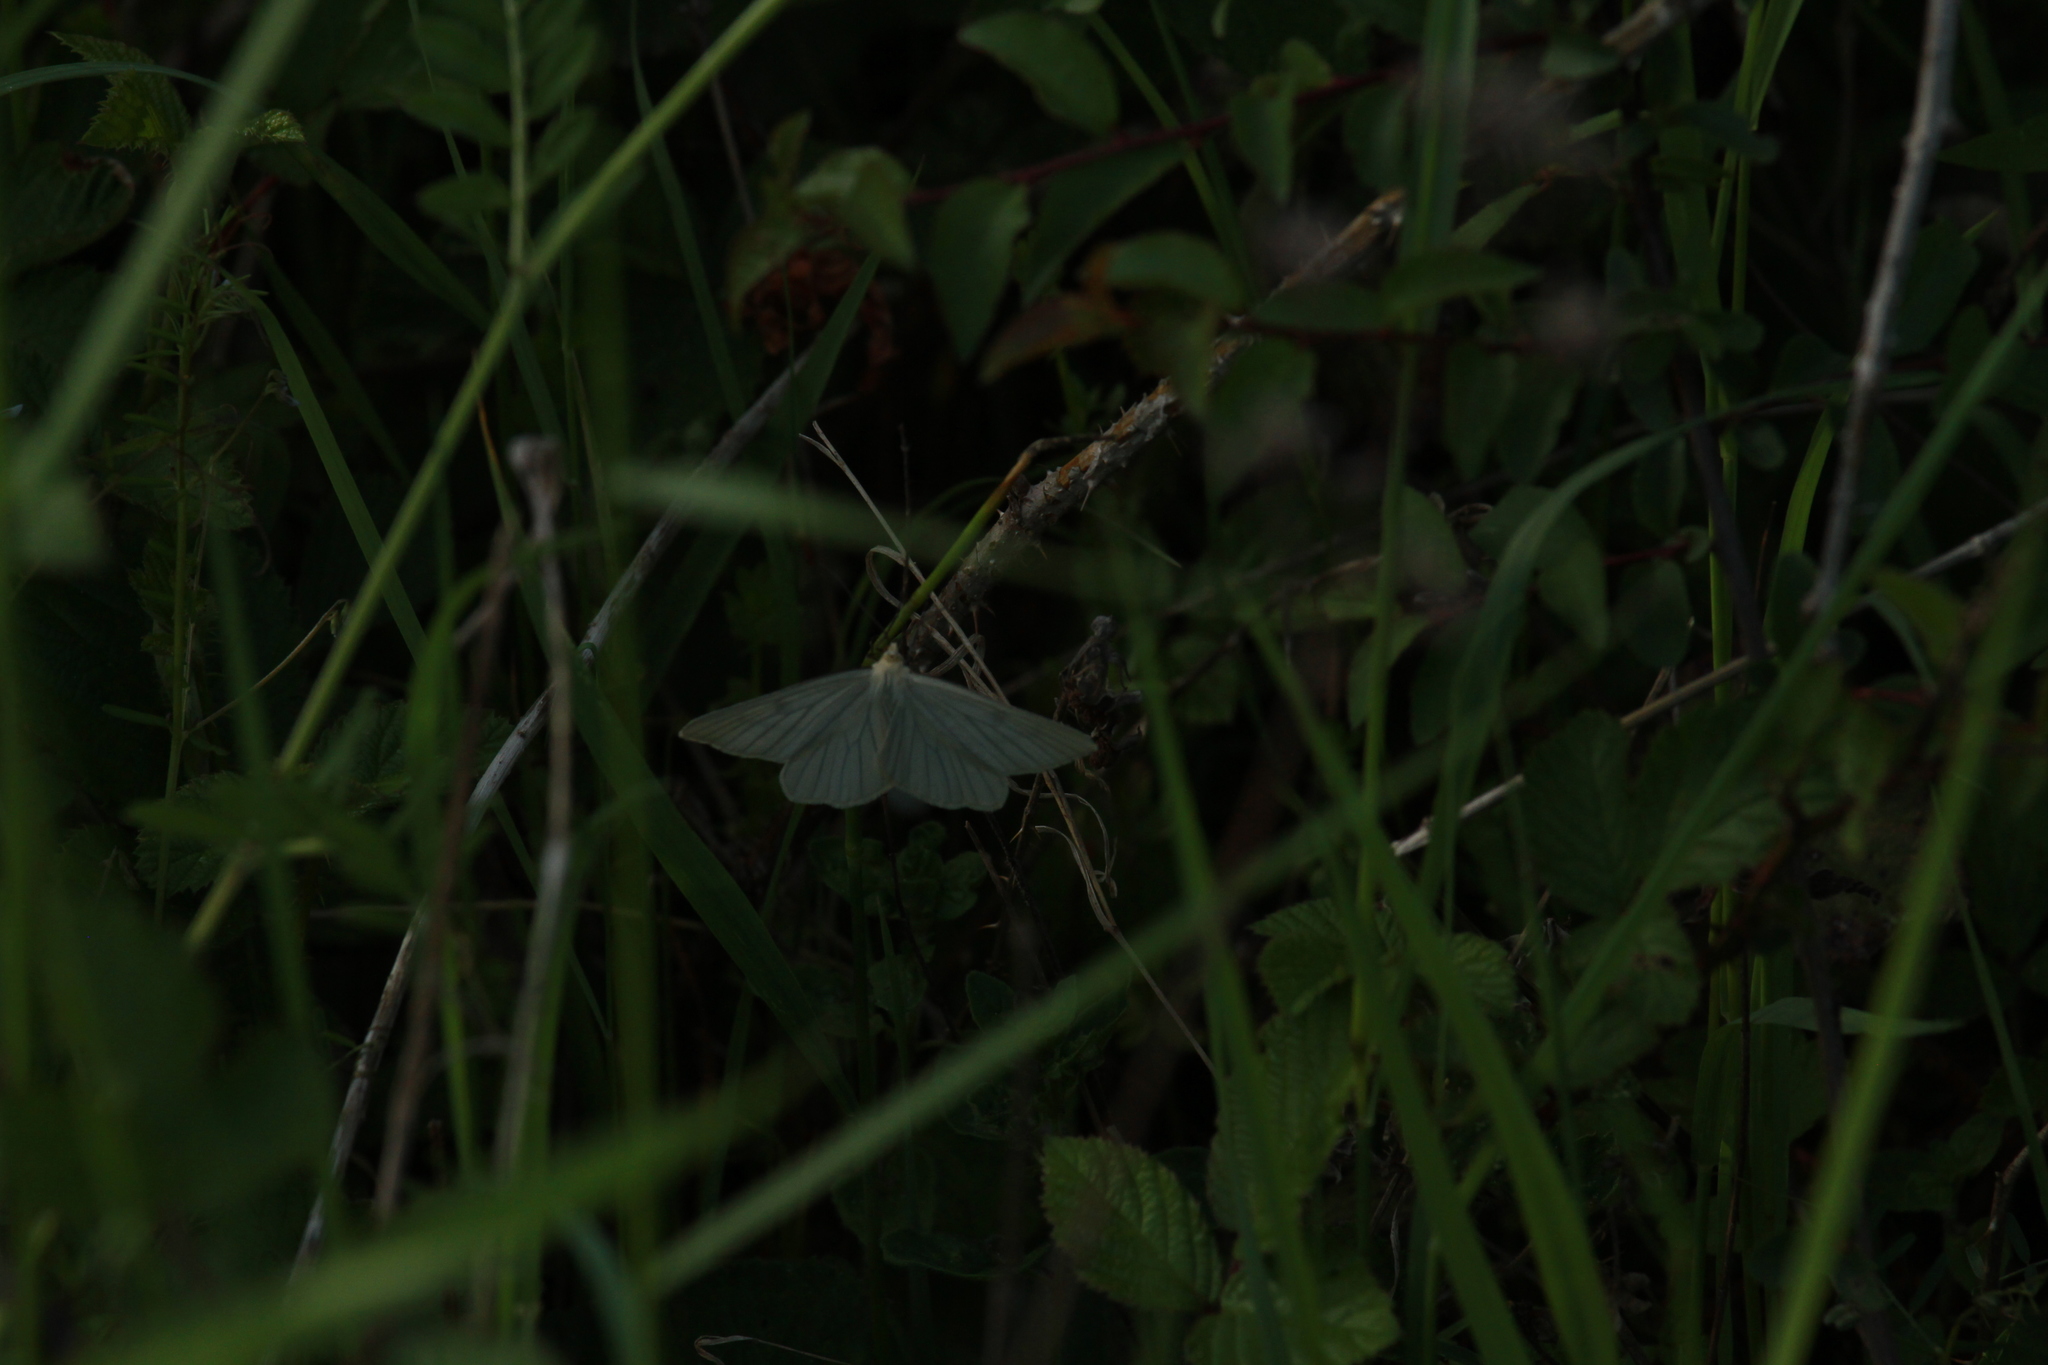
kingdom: Animalia
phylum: Arthropoda
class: Insecta
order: Lepidoptera
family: Geometridae
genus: Siona
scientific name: Siona lineata
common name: Black-veined moth
